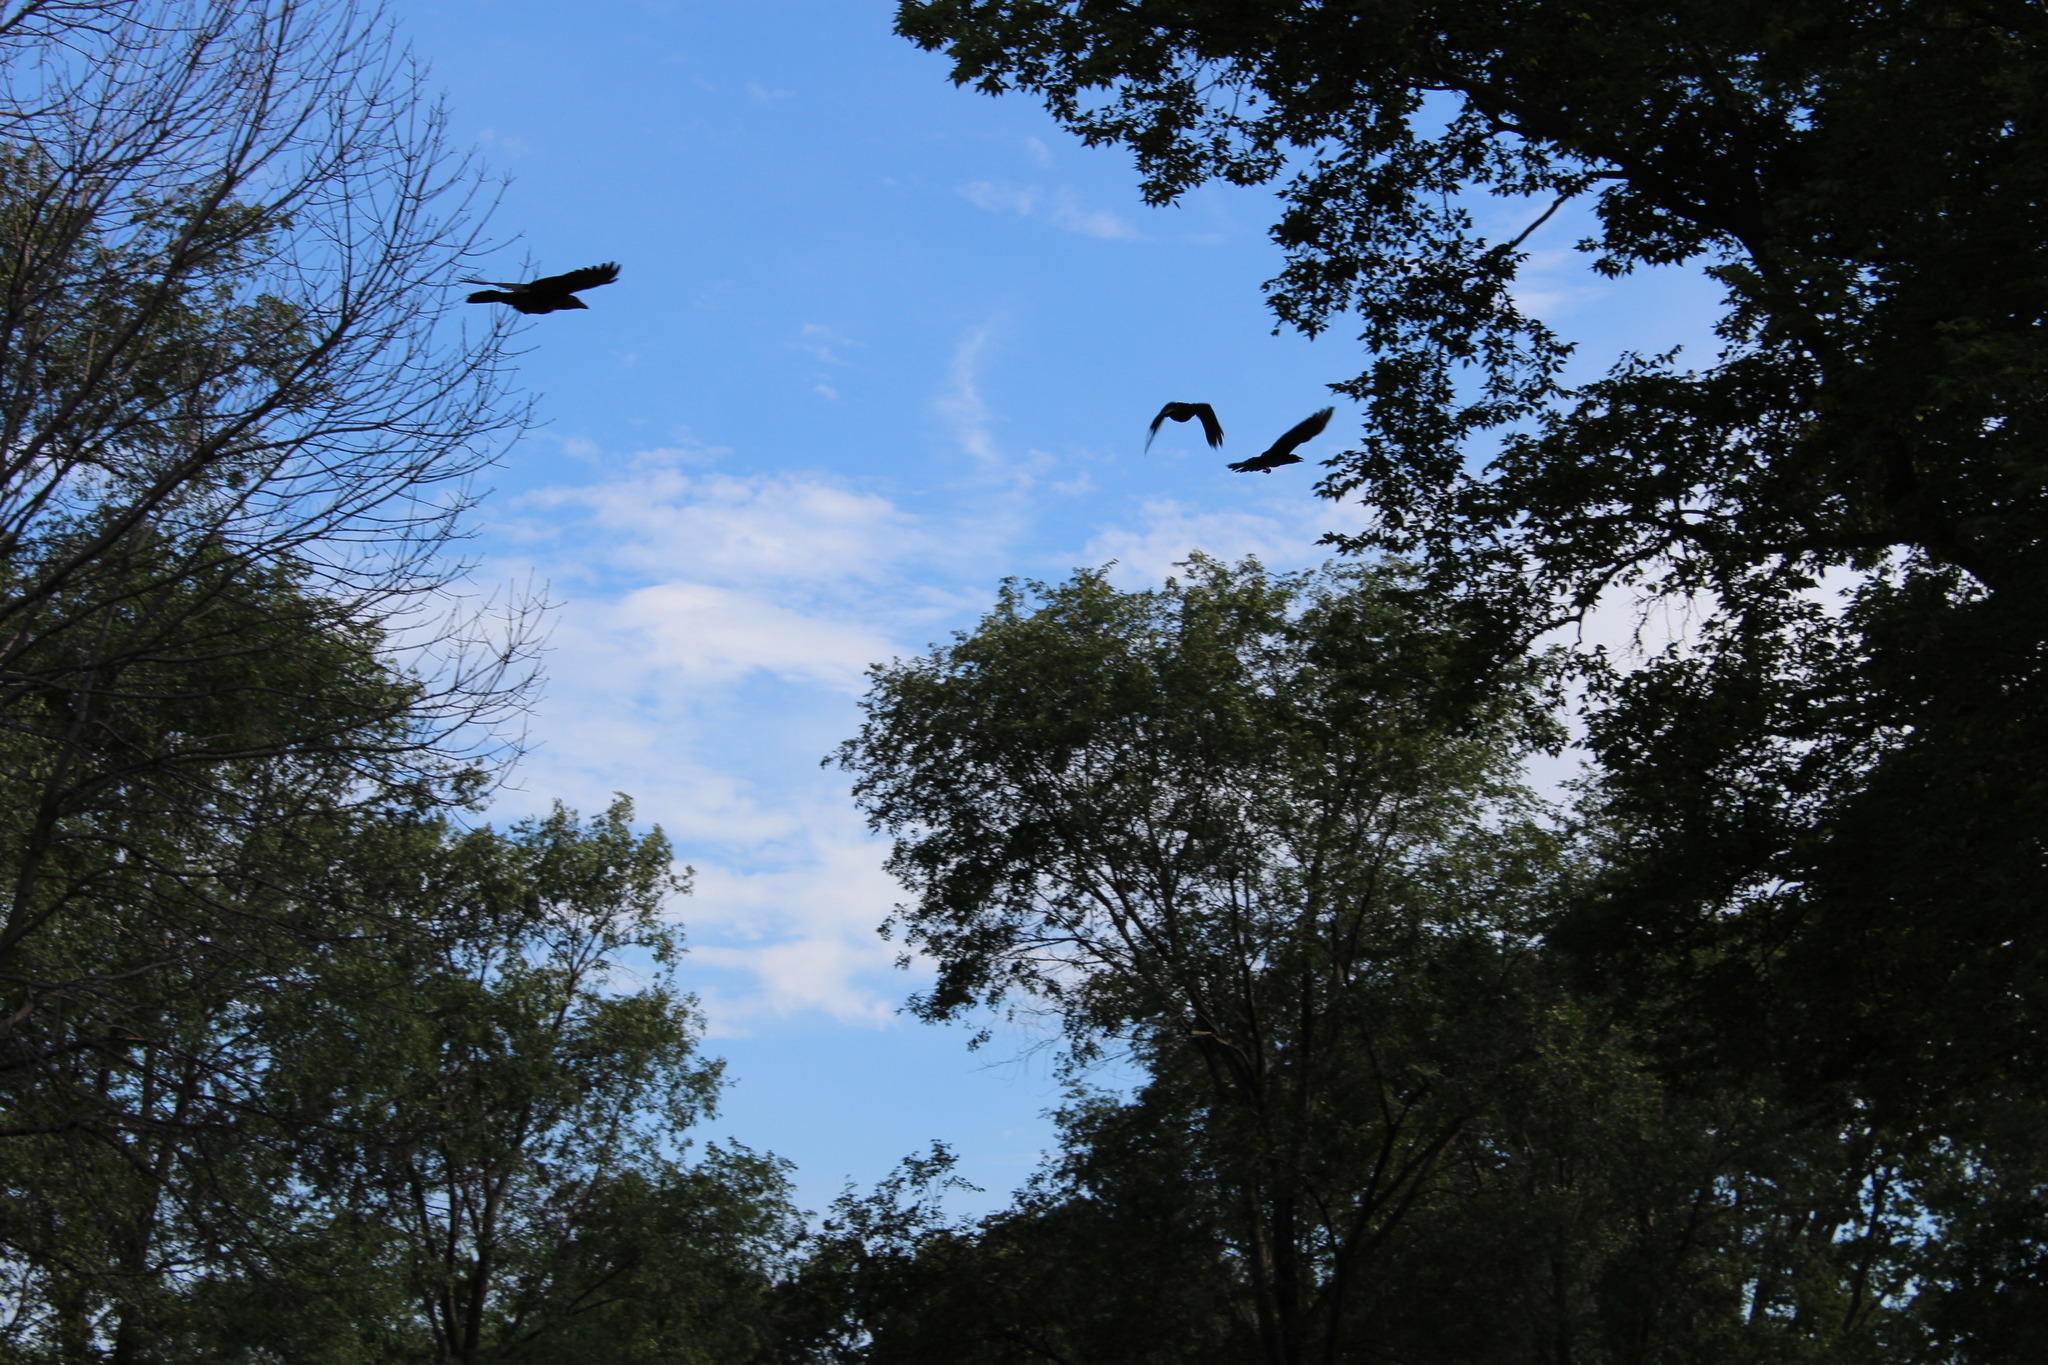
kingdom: Animalia
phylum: Chordata
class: Aves
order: Passeriformes
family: Corvidae
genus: Corvus
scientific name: Corvus brachyrhynchos
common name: American crow
